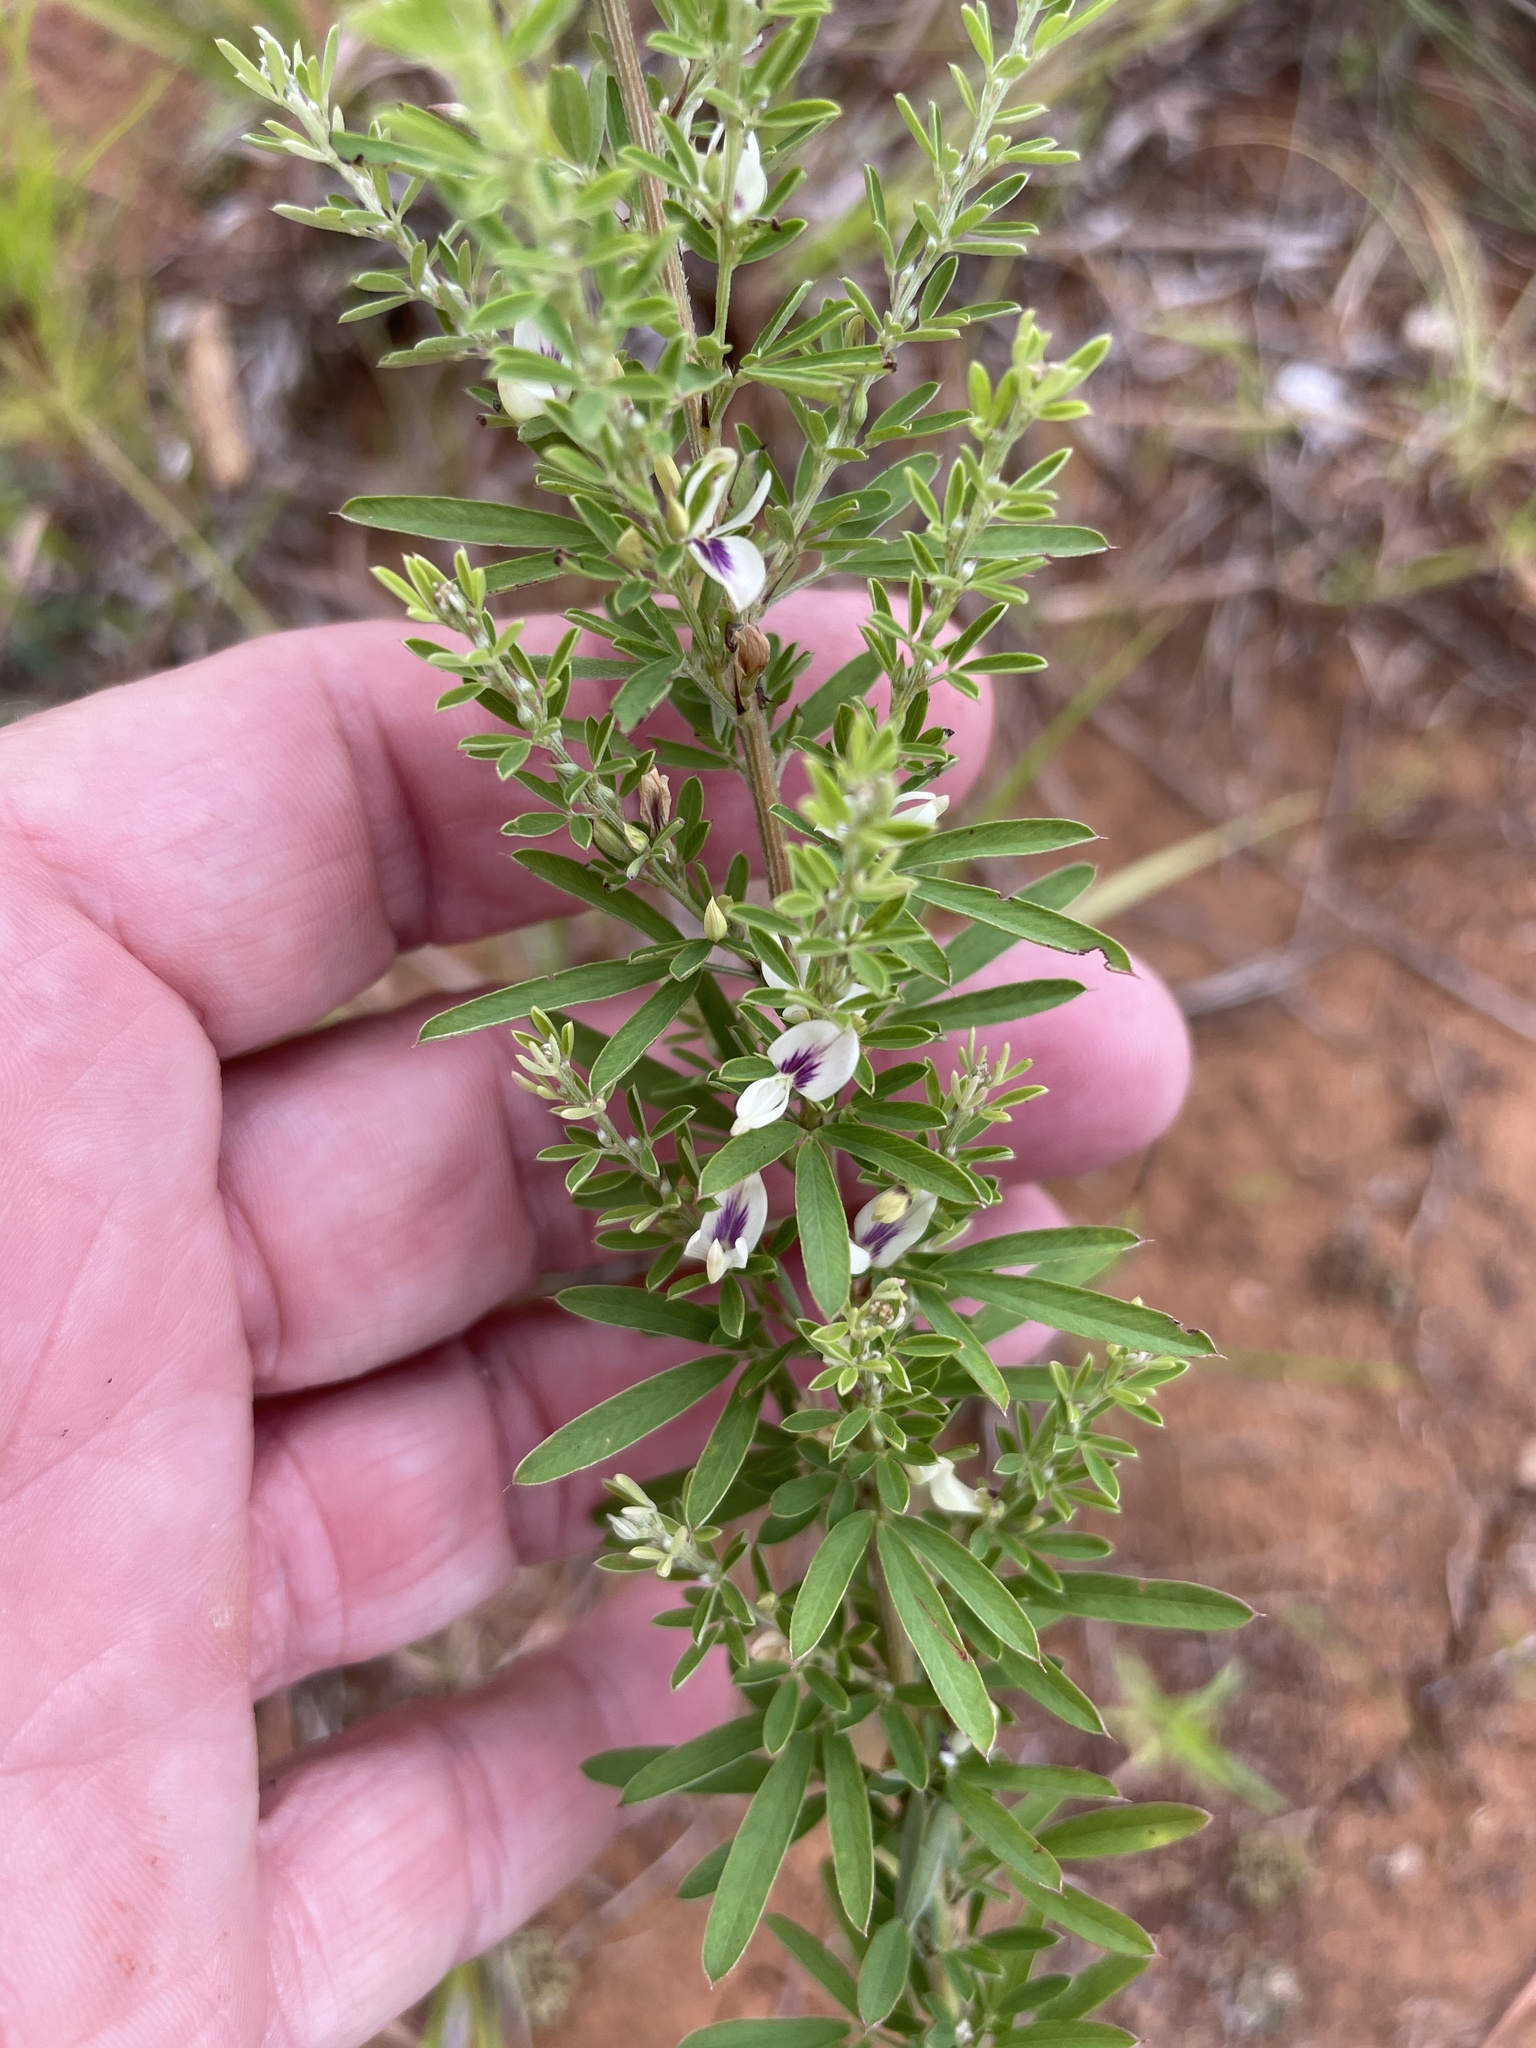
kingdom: Plantae
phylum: Tracheophyta
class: Magnoliopsida
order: Fabales
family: Fabaceae
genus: Lespedeza
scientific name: Lespedeza cuneata
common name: Chinese bush-clover
